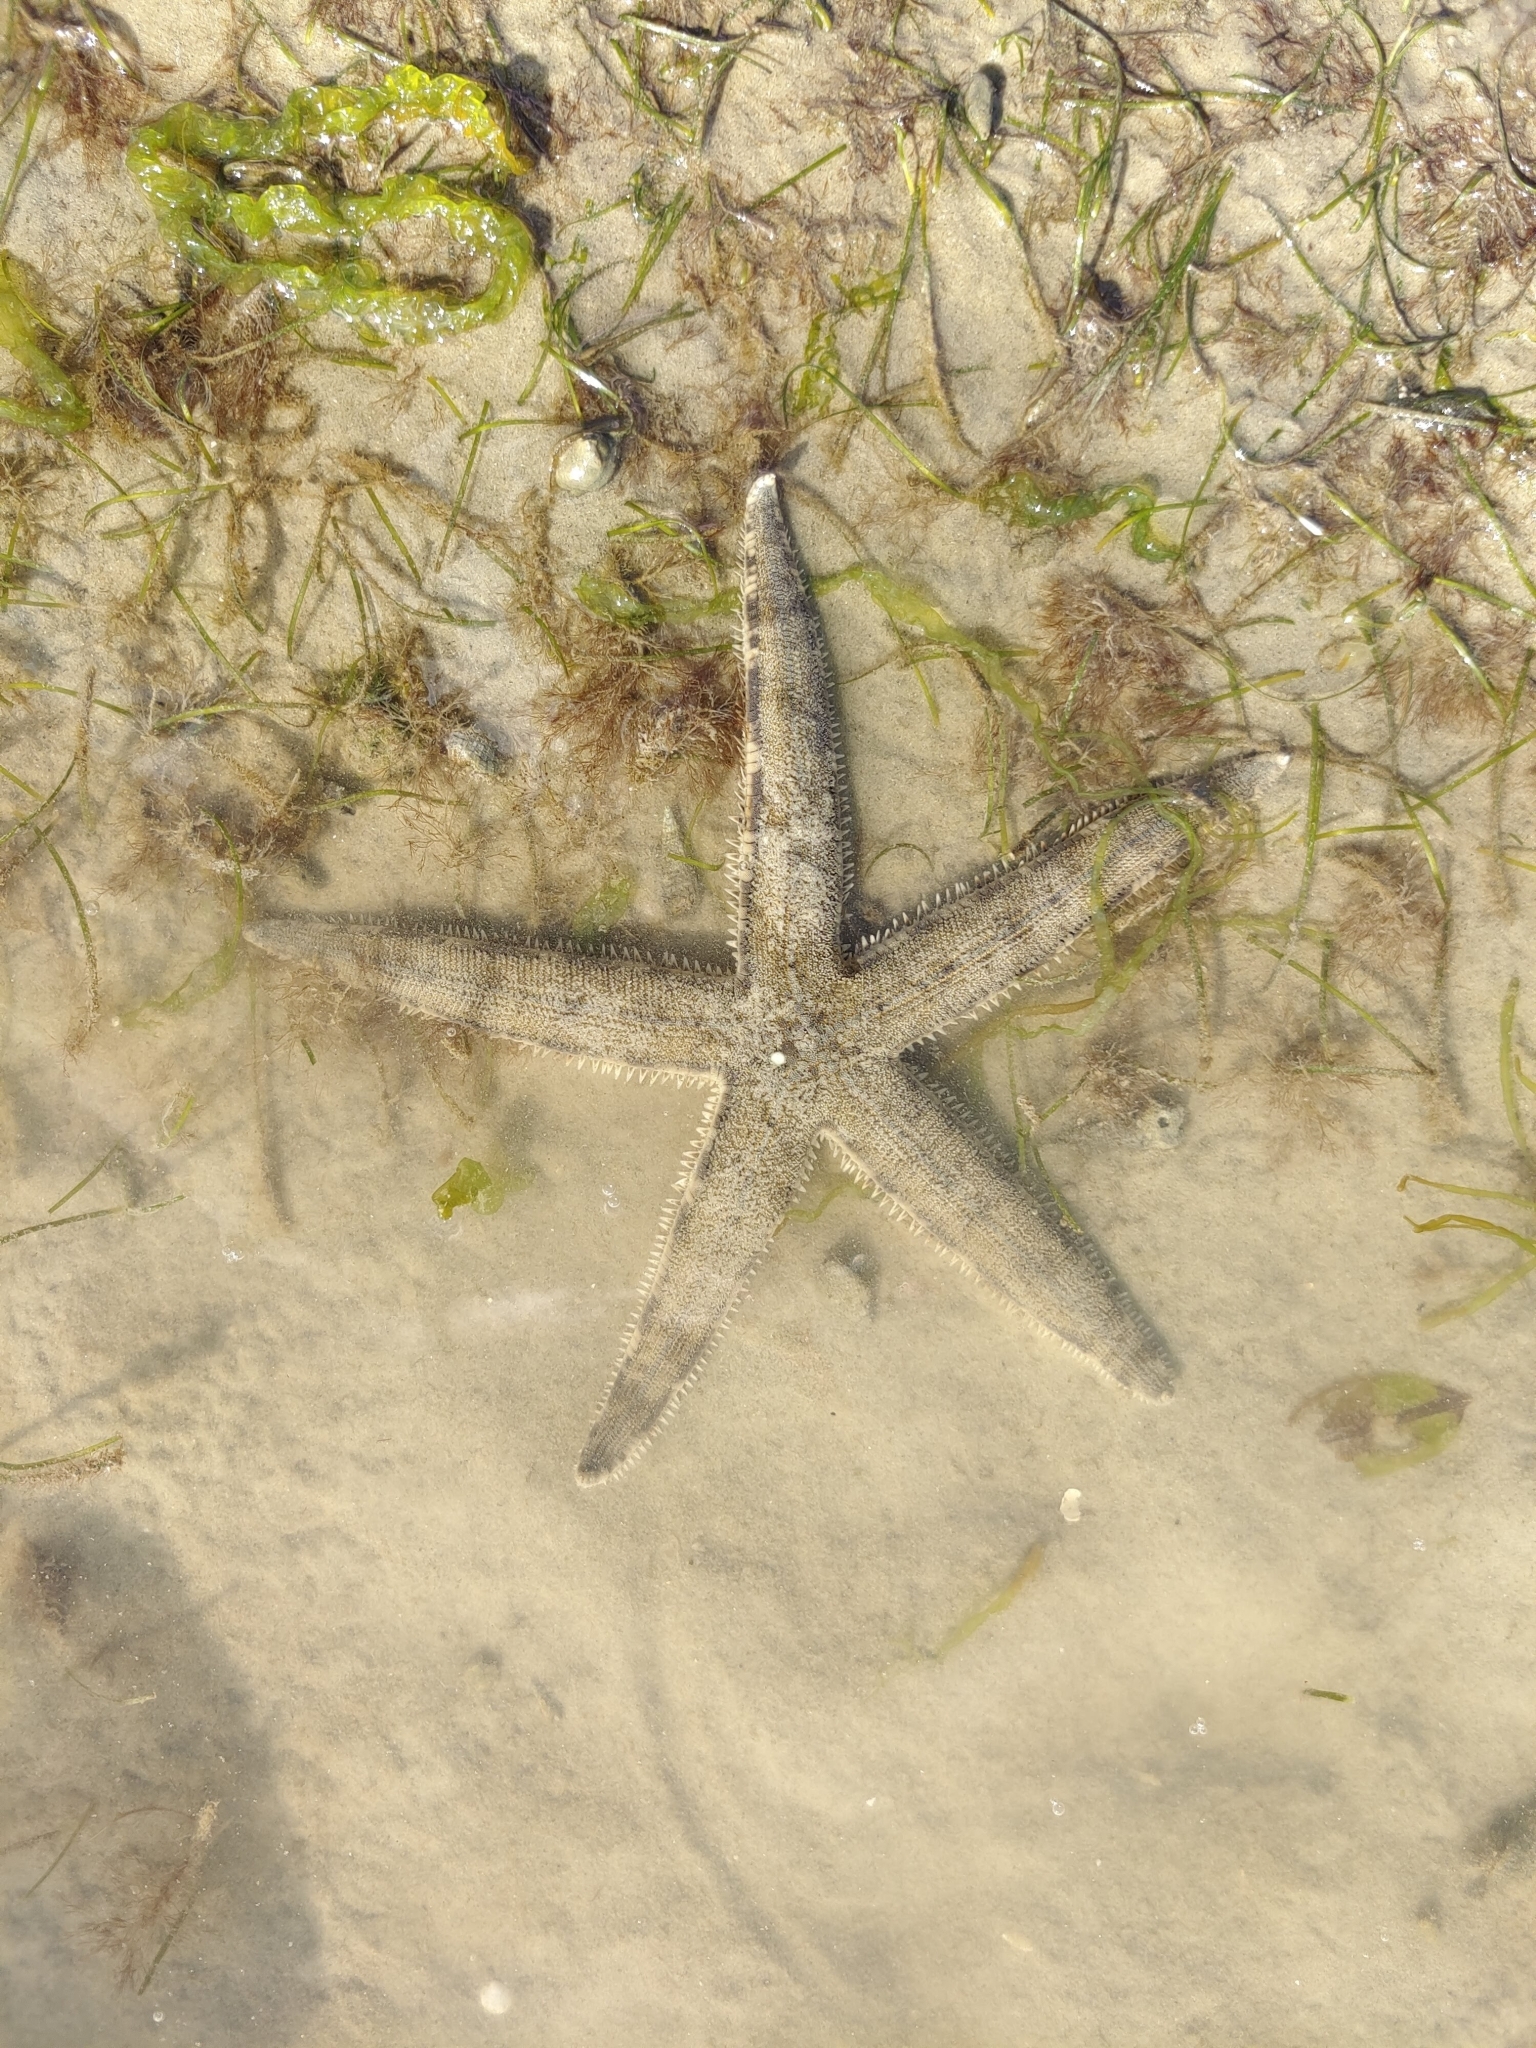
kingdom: Animalia
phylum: Echinodermata
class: Asteroidea
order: Valvatida
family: Archasteridae
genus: Archaster
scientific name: Archaster typicus
